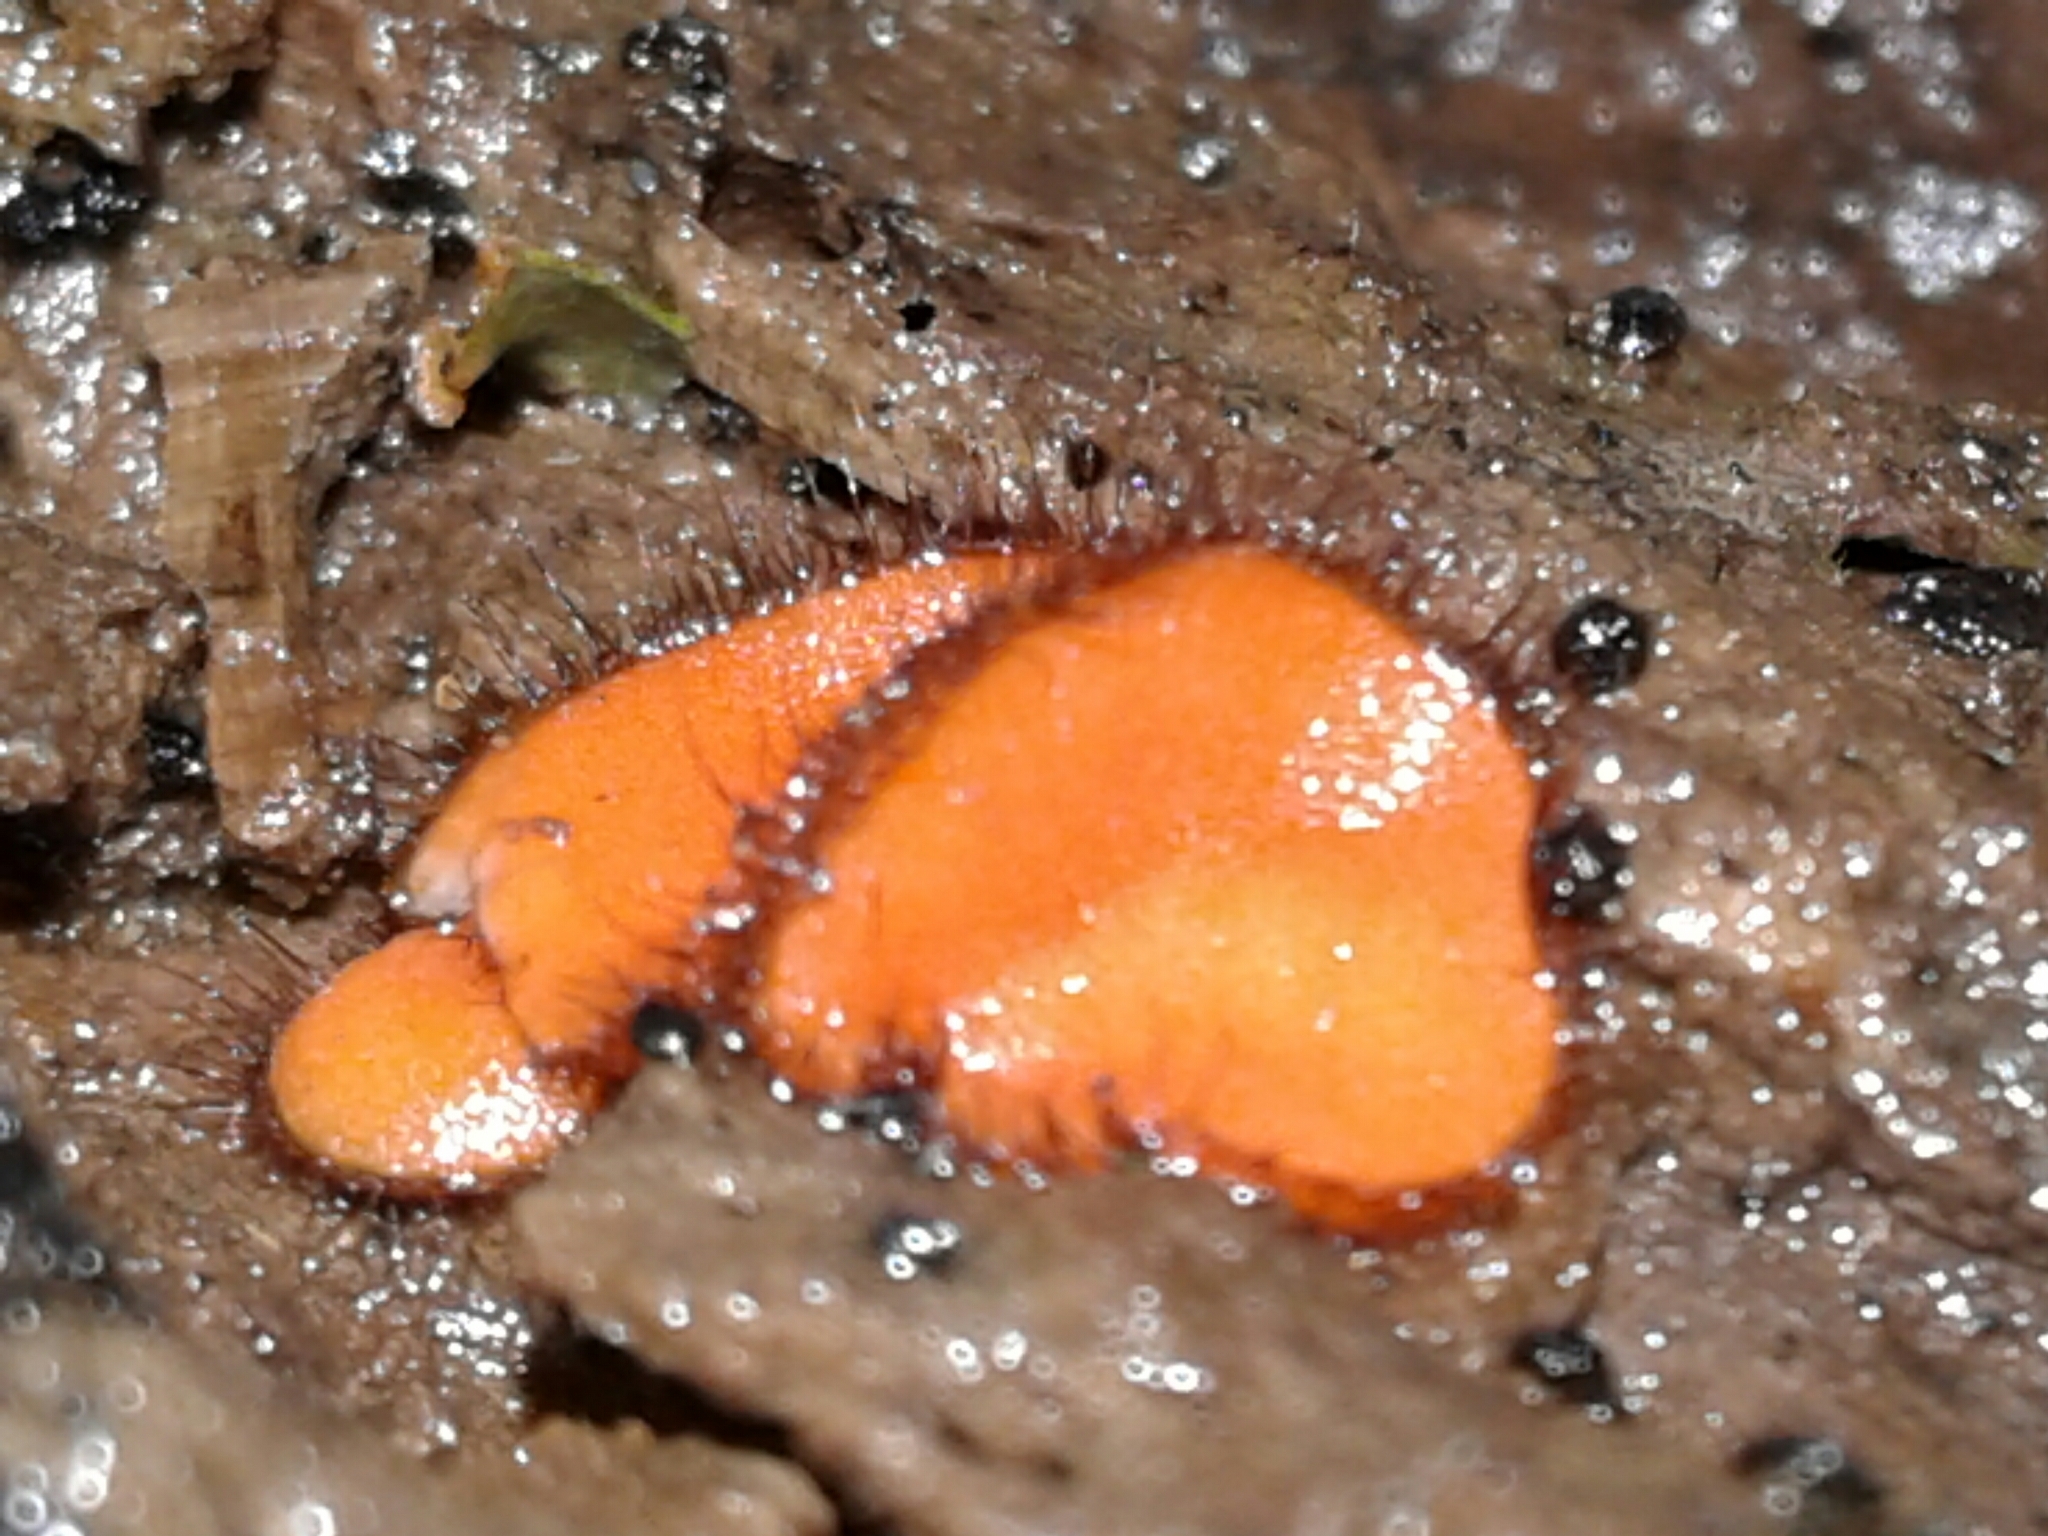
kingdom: Fungi
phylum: Ascomycota
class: Pezizomycetes
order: Pezizales
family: Pyronemataceae
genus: Scutellinia
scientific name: Scutellinia scutellata
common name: Common eyelash
